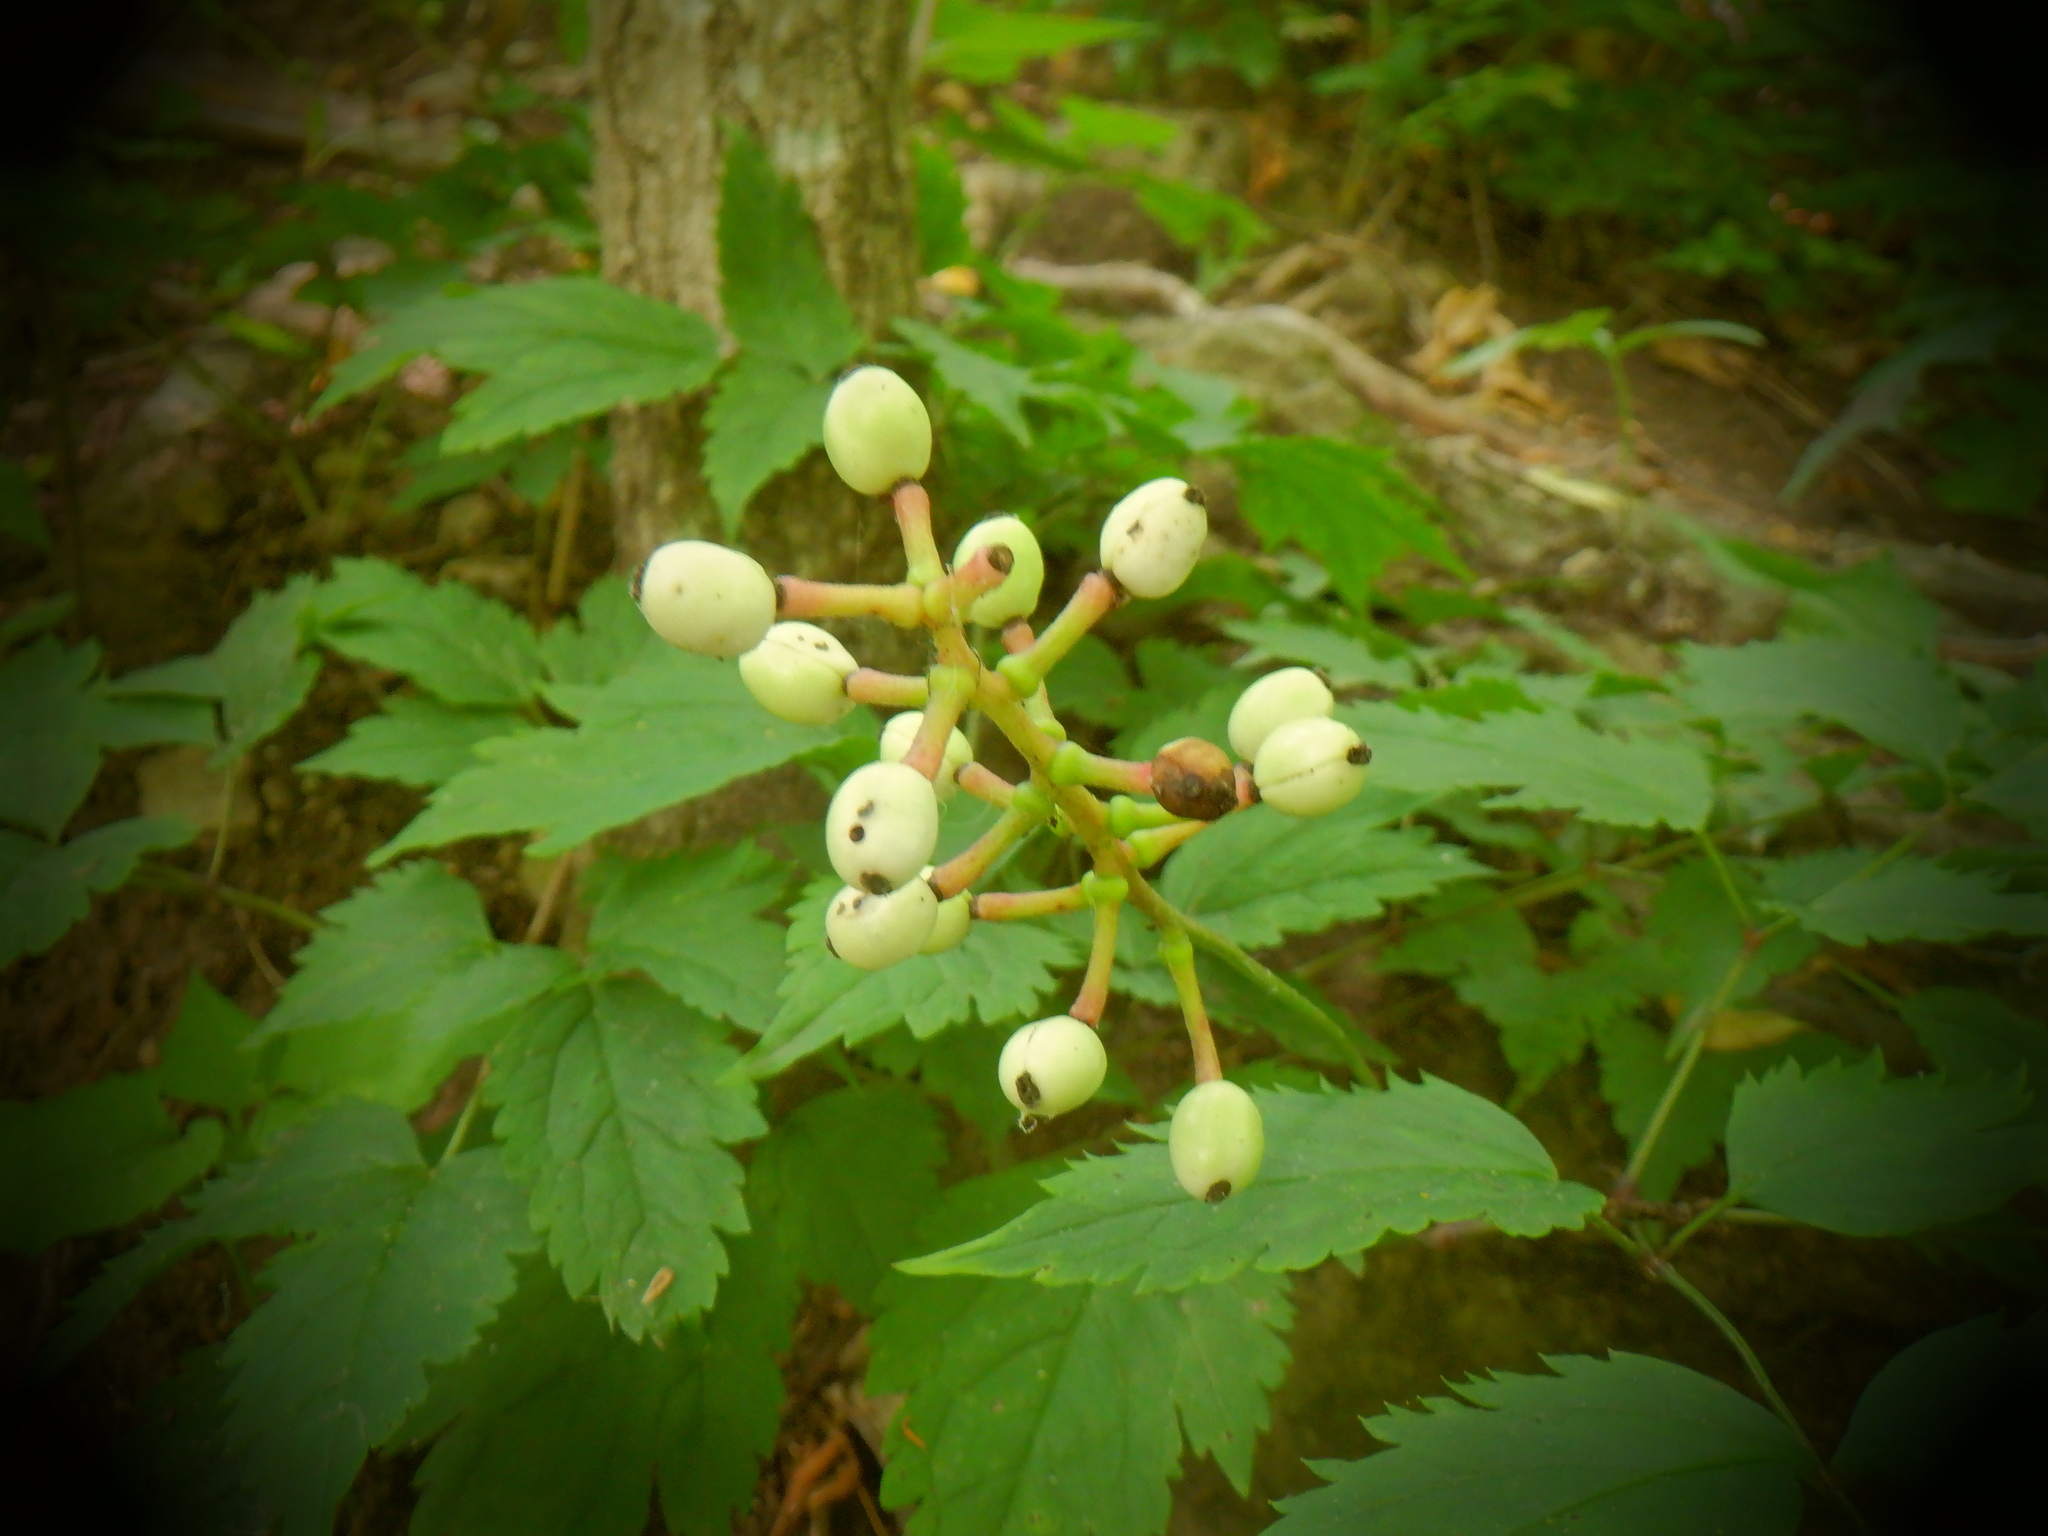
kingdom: Plantae
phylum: Tracheophyta
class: Magnoliopsida
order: Ranunculales
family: Ranunculaceae
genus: Actaea
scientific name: Actaea pachypoda
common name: Doll's-eyes
